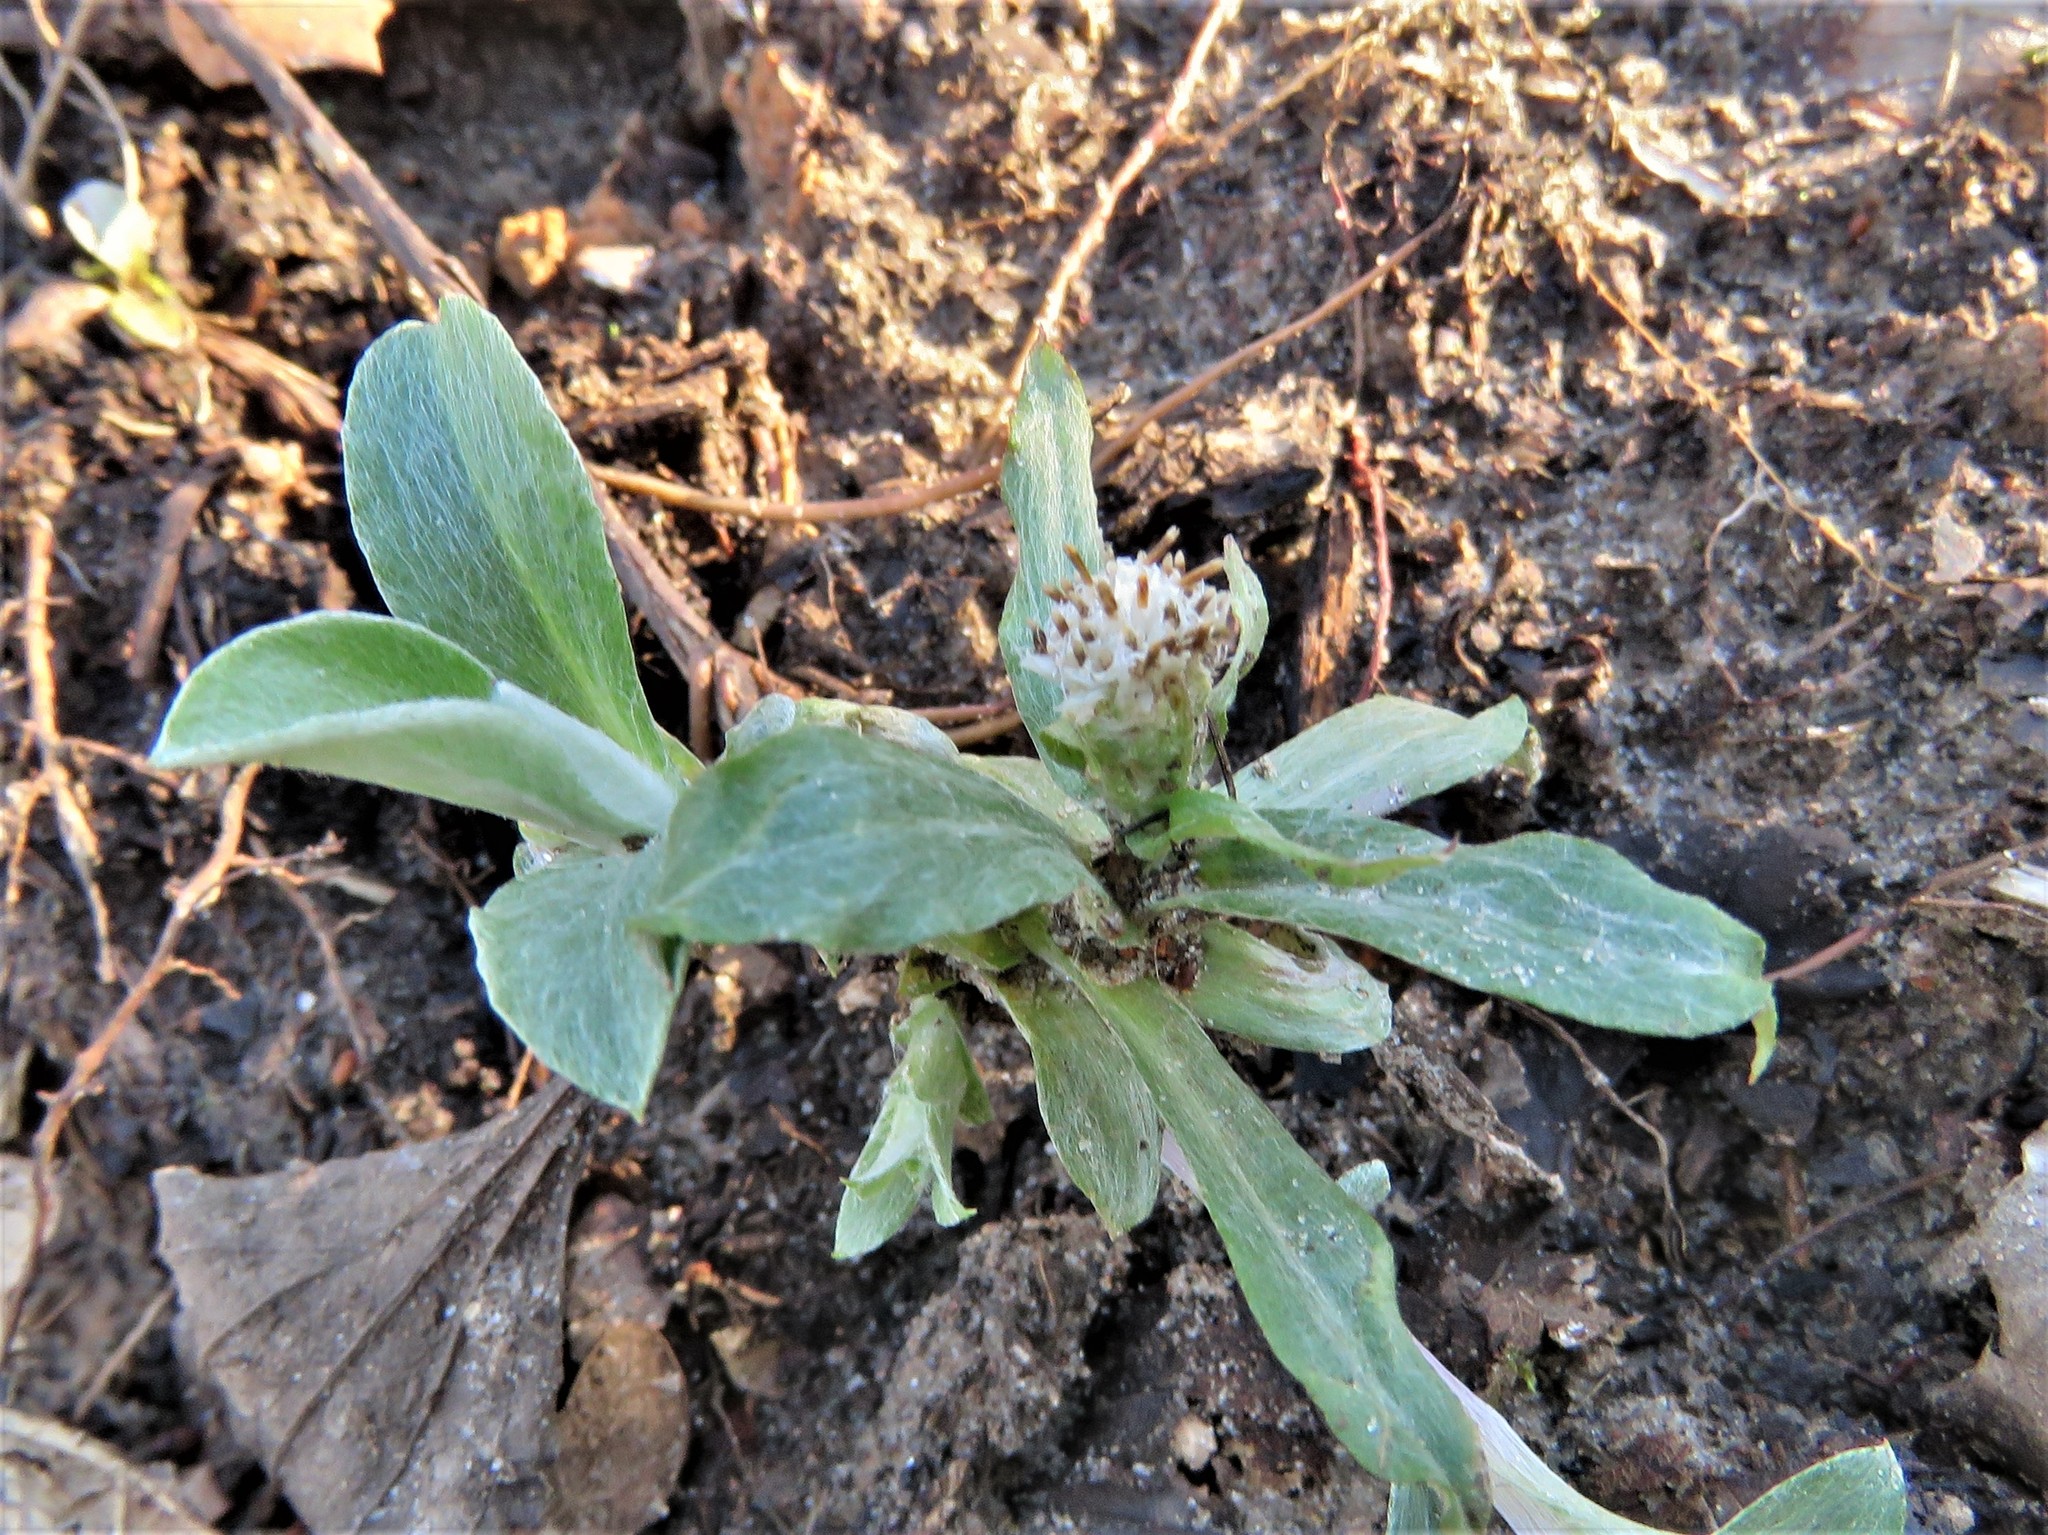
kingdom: Plantae
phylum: Tracheophyta
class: Magnoliopsida
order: Asterales
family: Asteraceae
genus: Antennaria
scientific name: Antennaria parlinii
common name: Parlin's pussytoes
